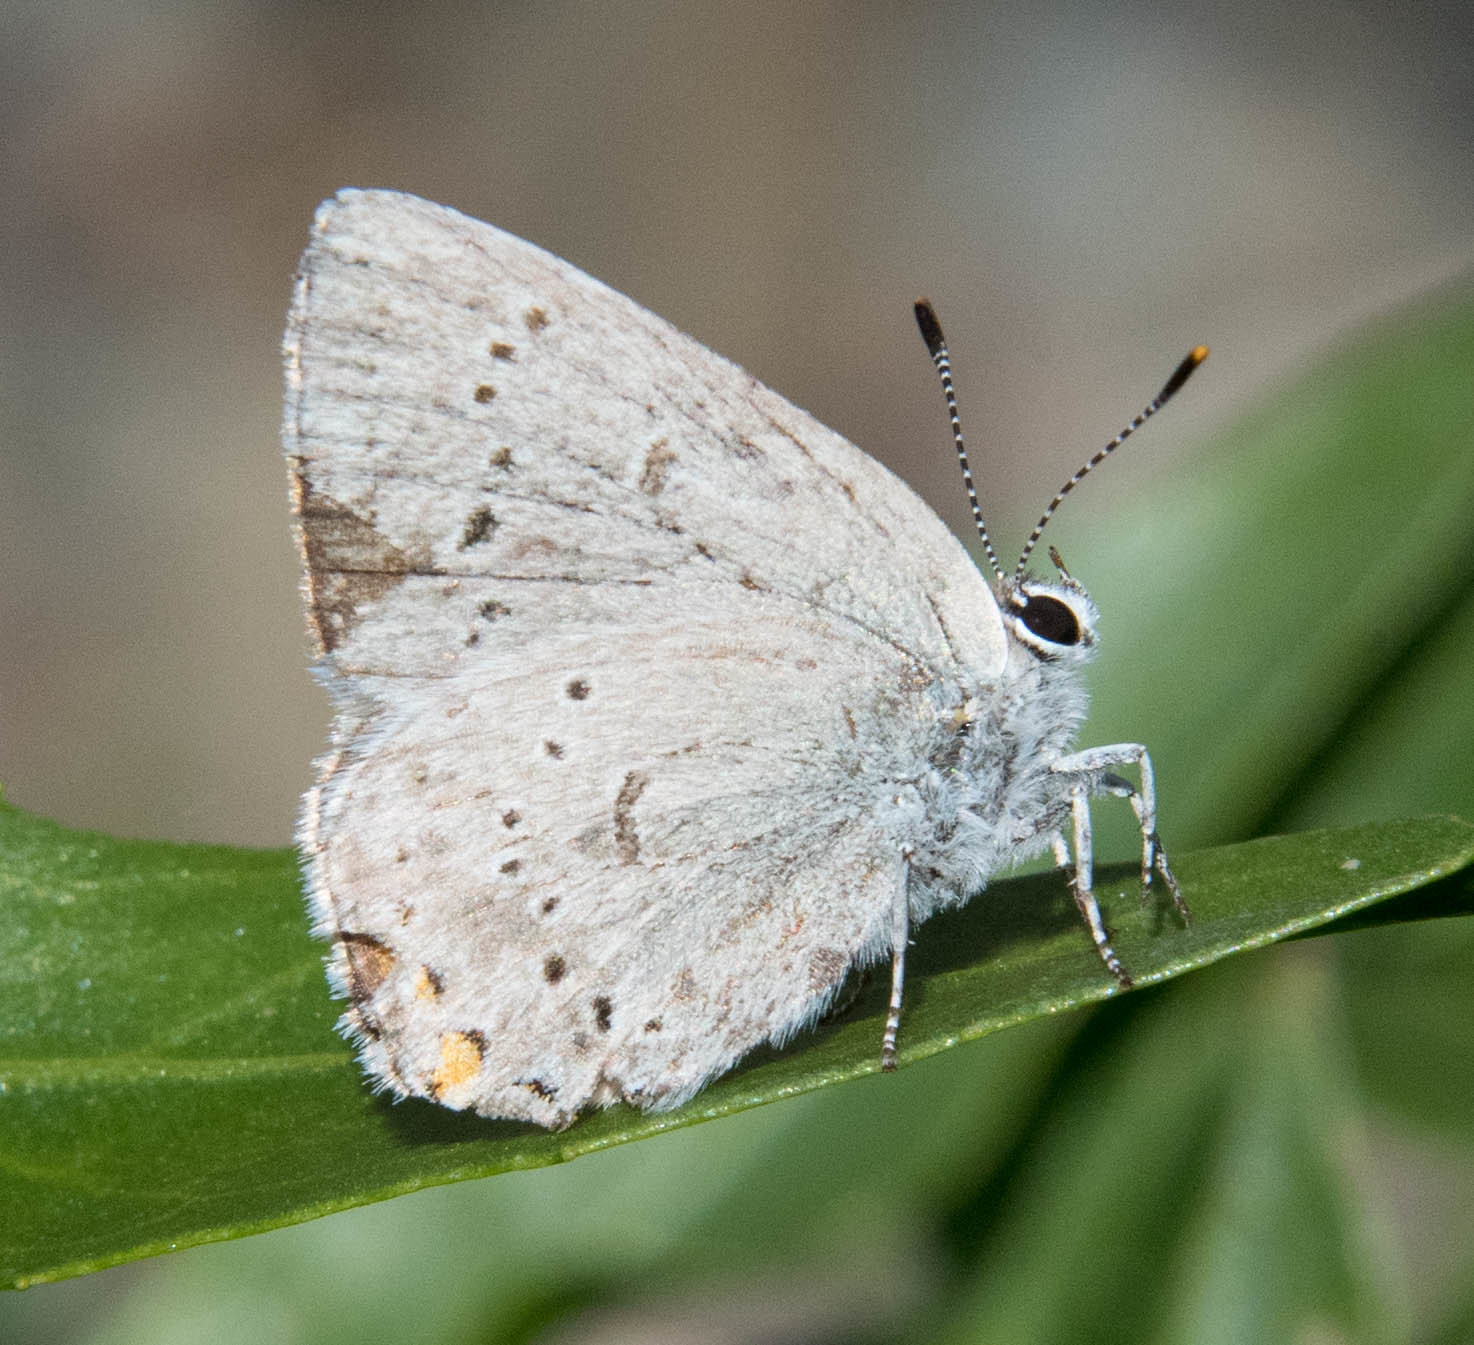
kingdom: Animalia
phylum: Arthropoda
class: Insecta
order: Lepidoptera
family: Lycaenidae
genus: Strymon
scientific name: Strymon acadica
